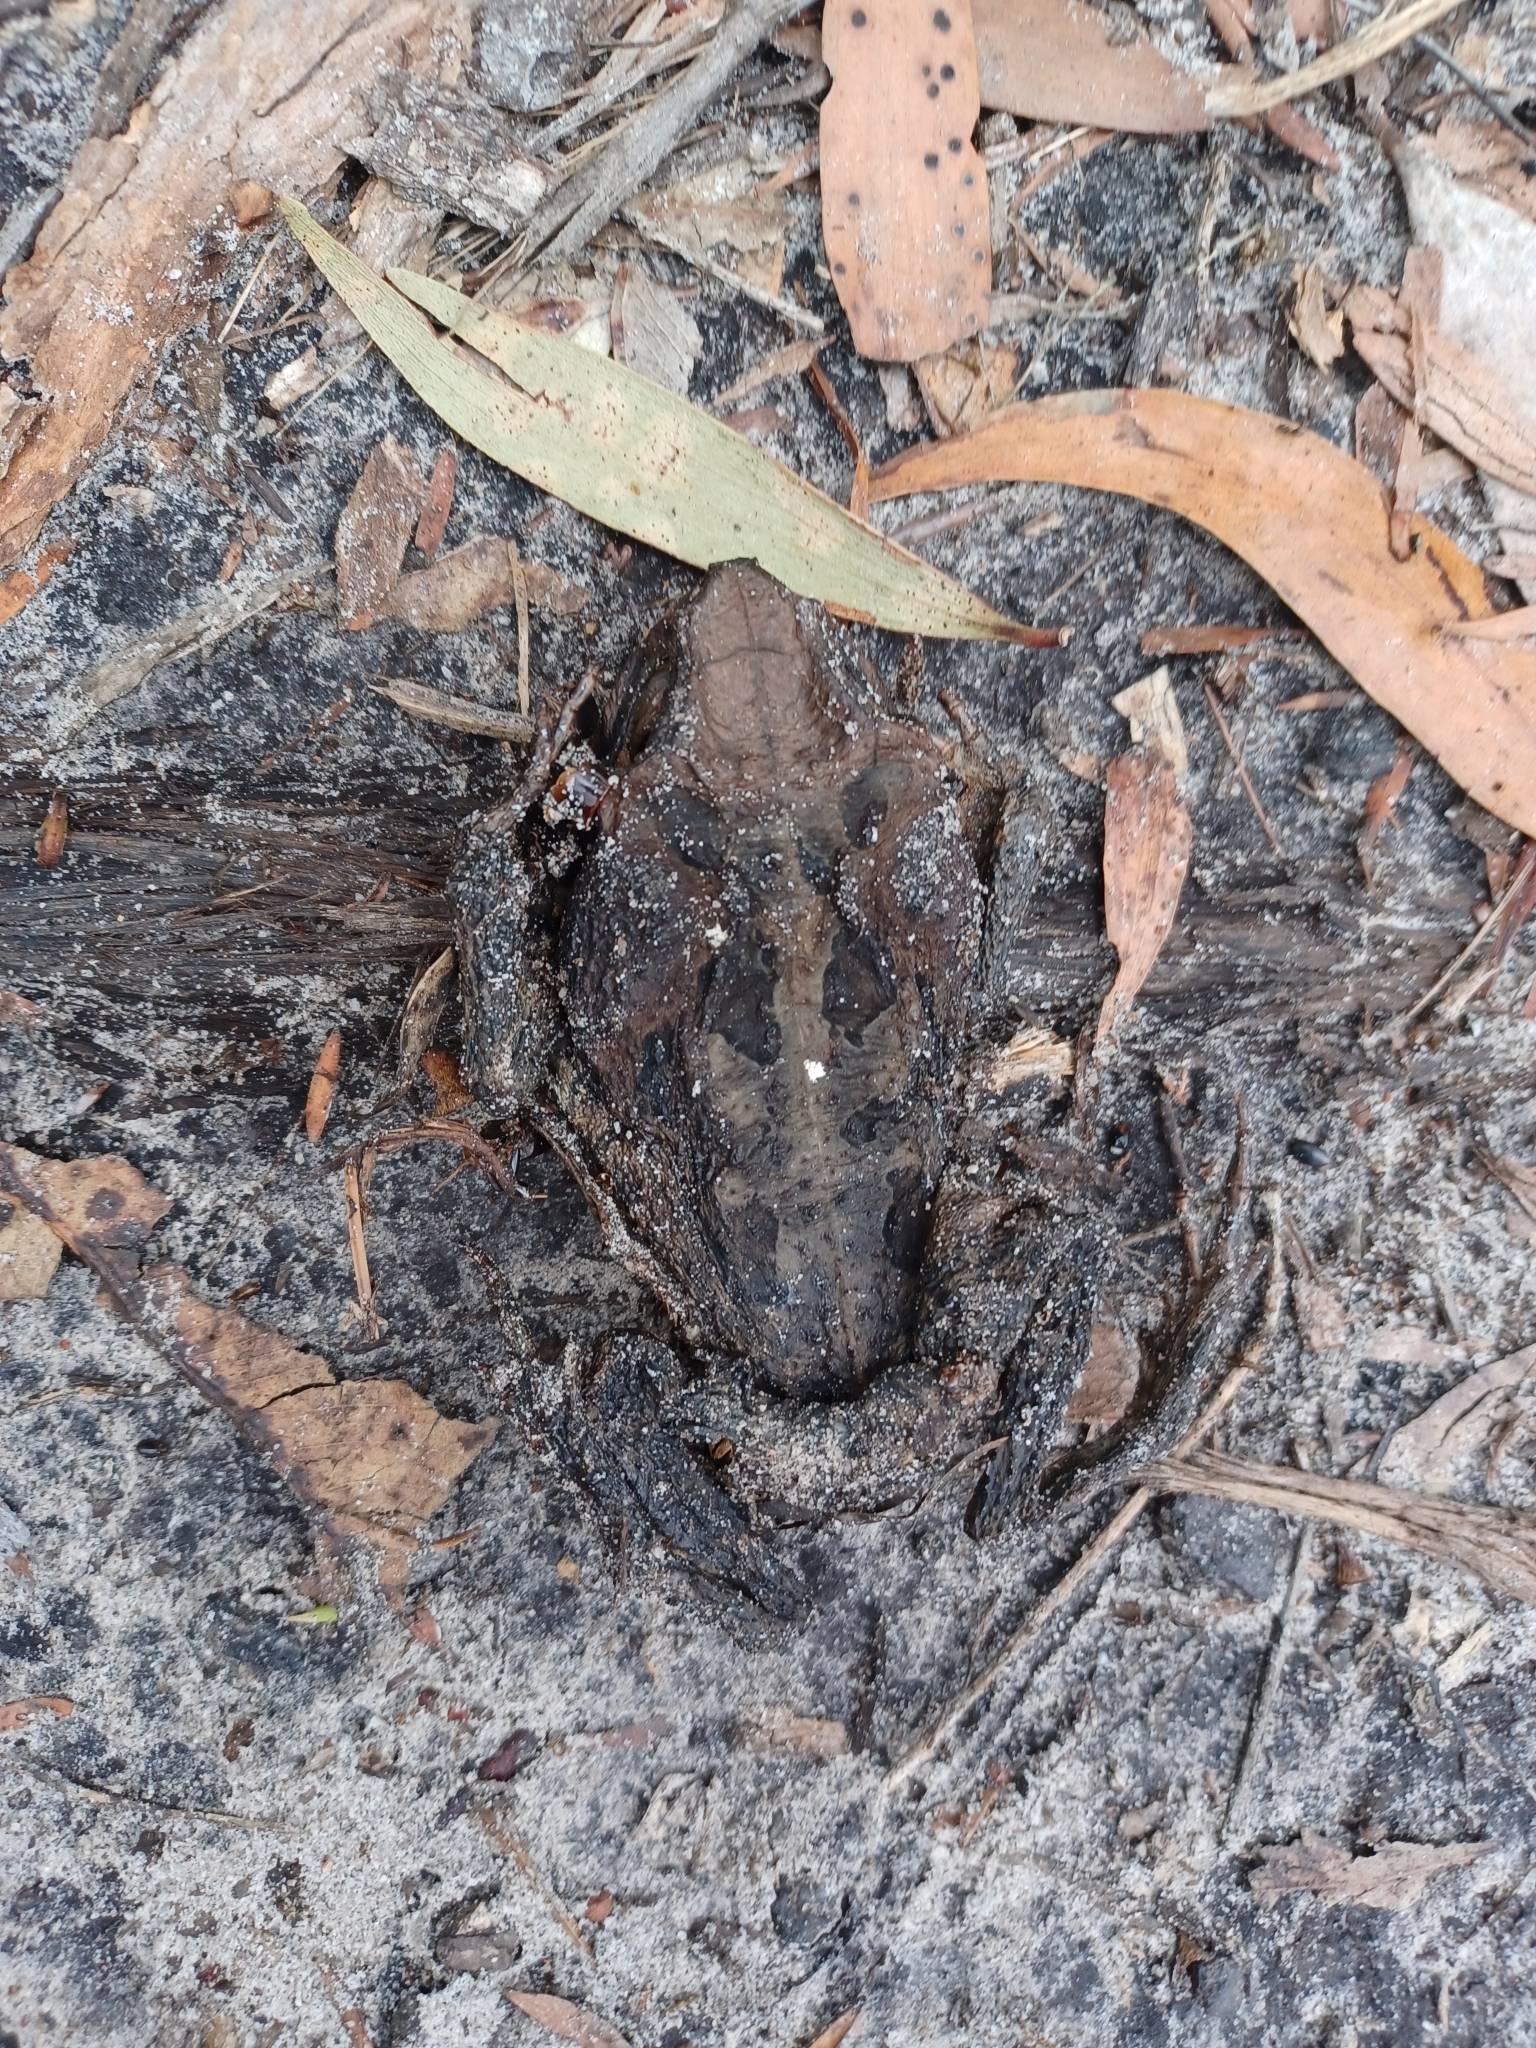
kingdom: Animalia
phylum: Chordata
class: Amphibia
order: Anura
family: Bufonidae
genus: Rhinella
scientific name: Rhinella marina
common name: Cane toad
